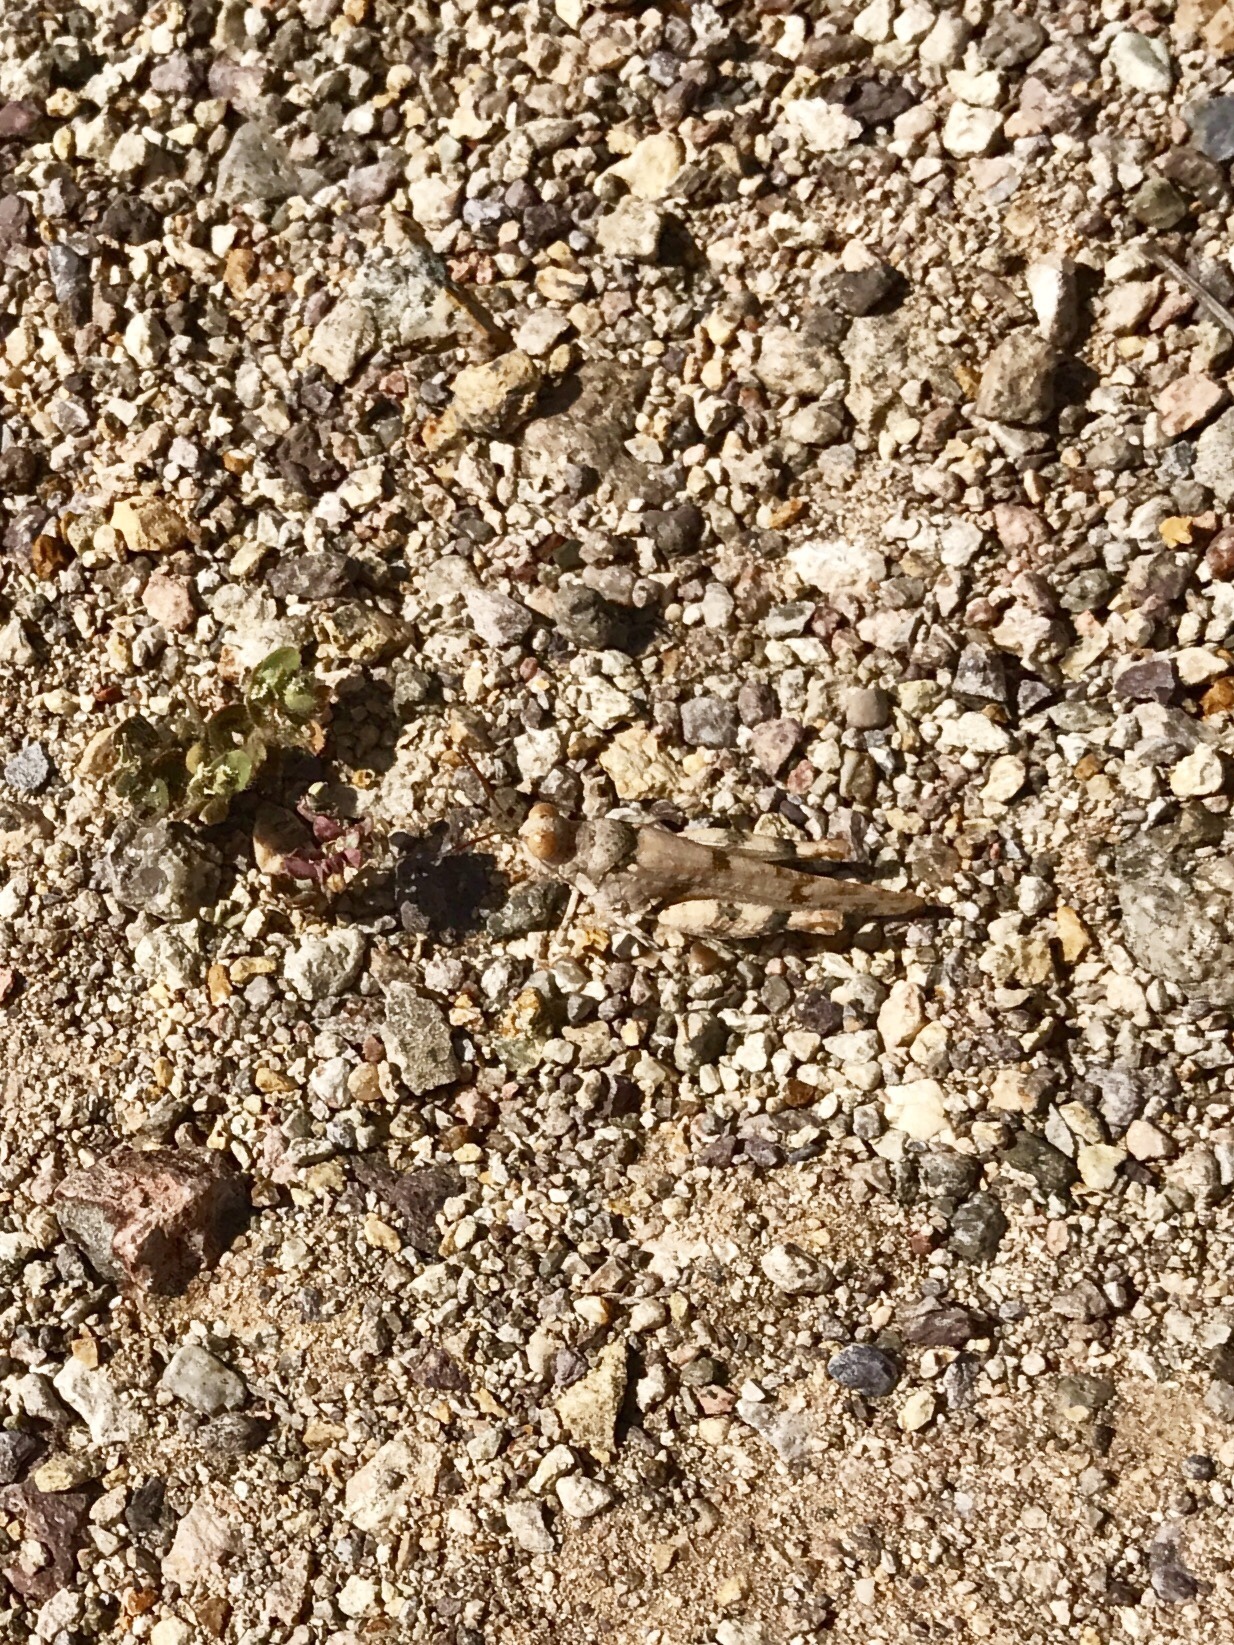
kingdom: Animalia
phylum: Arthropoda
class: Insecta
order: Orthoptera
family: Acrididae
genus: Cibolacris
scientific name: Cibolacris parviceps
